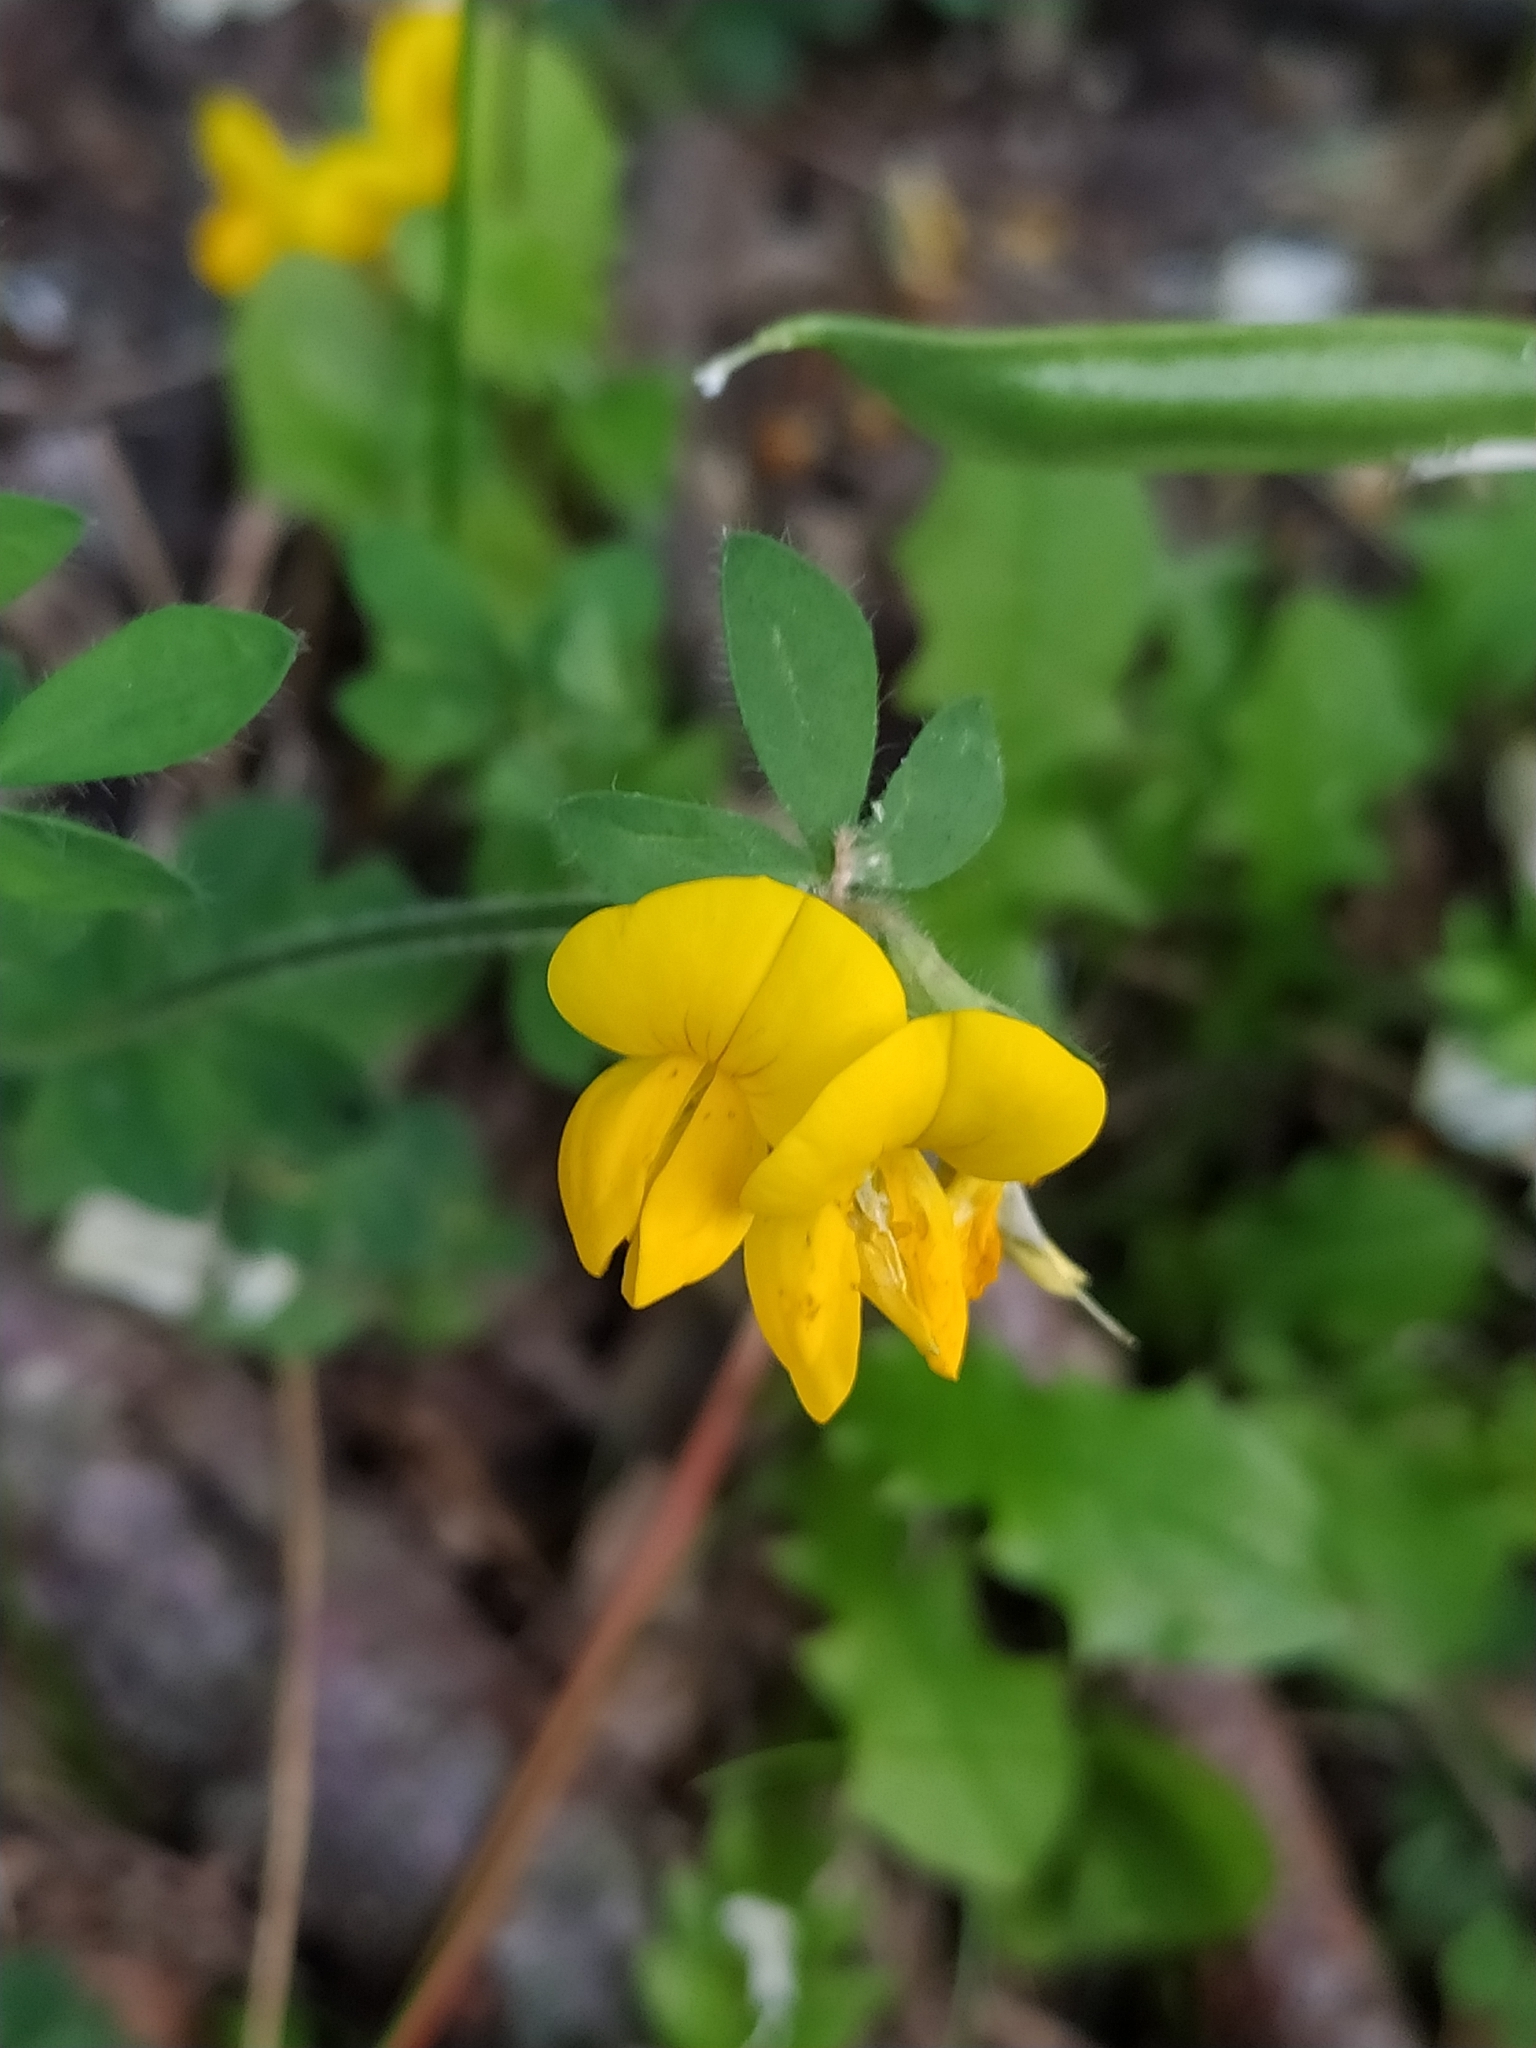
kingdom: Plantae
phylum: Tracheophyta
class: Magnoliopsida
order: Fabales
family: Fabaceae
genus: Lotus
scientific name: Lotus corniculatus
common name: Common bird's-foot-trefoil
